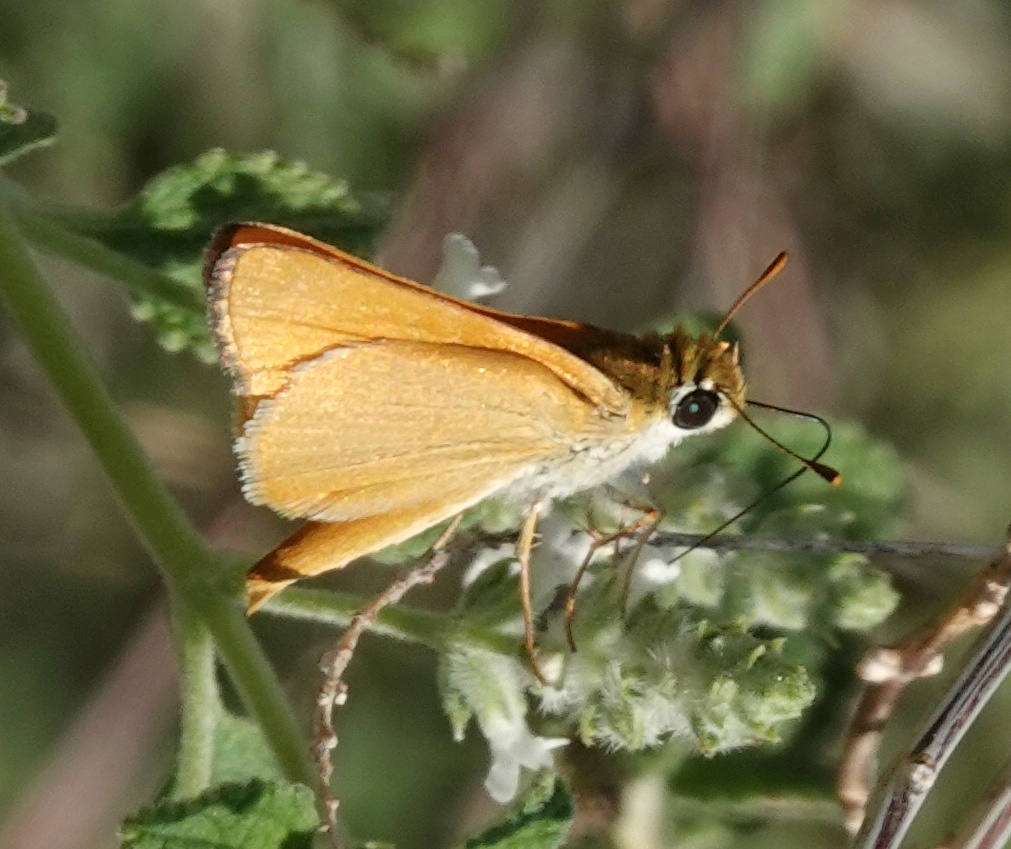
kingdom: Animalia
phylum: Arthropoda
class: Insecta
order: Lepidoptera
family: Hesperiidae
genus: Copaeodes
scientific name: Copaeodes aurantiaca
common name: Orange skipperling
